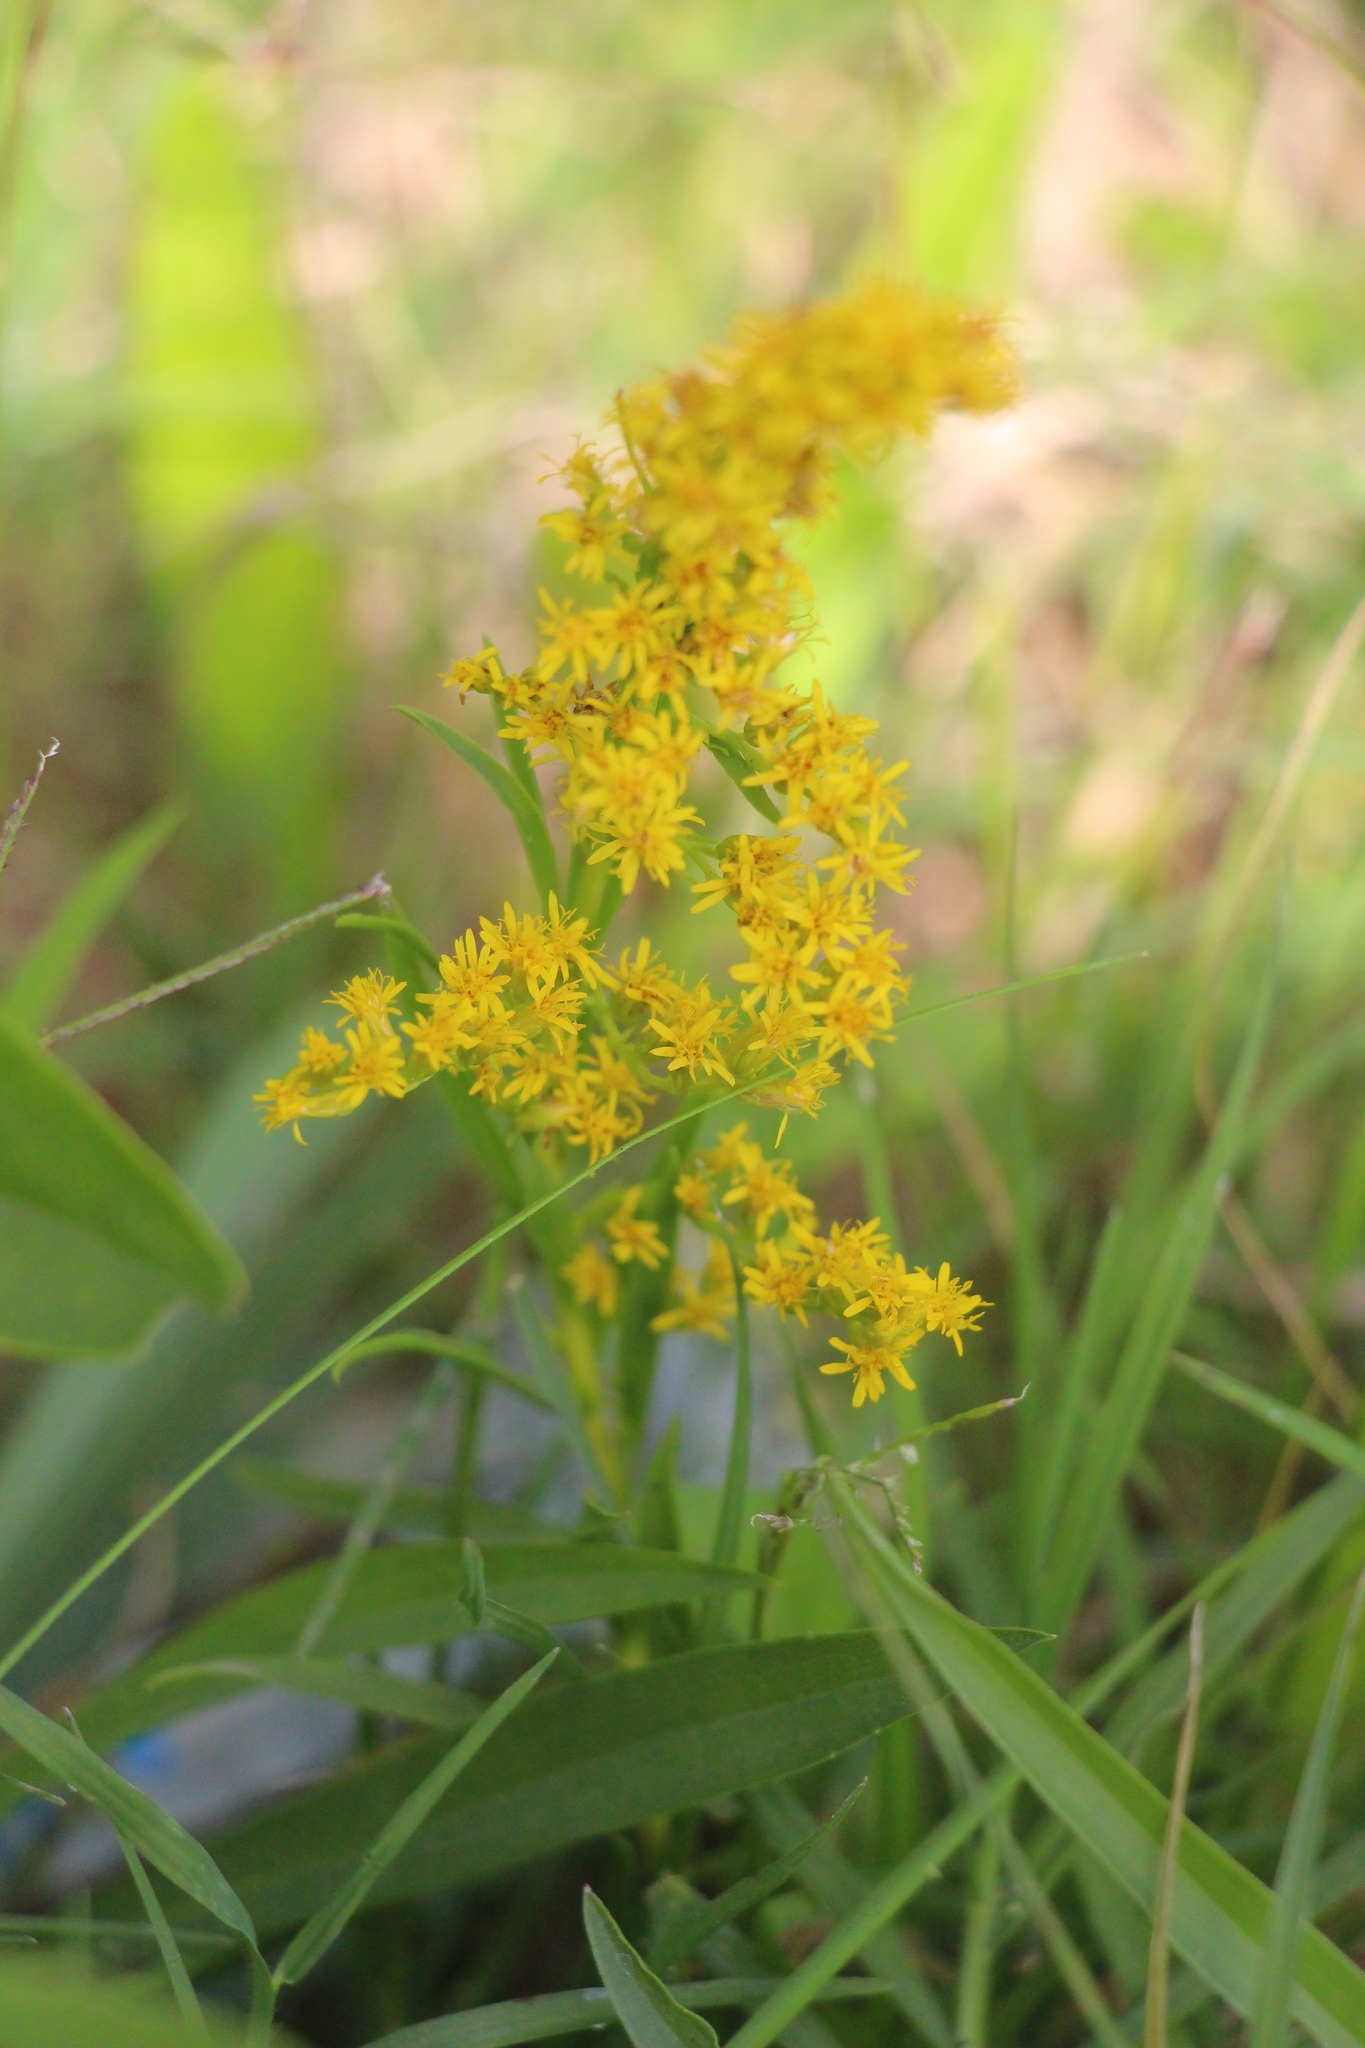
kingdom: Plantae
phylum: Tracheophyta
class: Magnoliopsida
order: Asterales
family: Asteraceae
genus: Solidago
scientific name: Solidago chilensis
